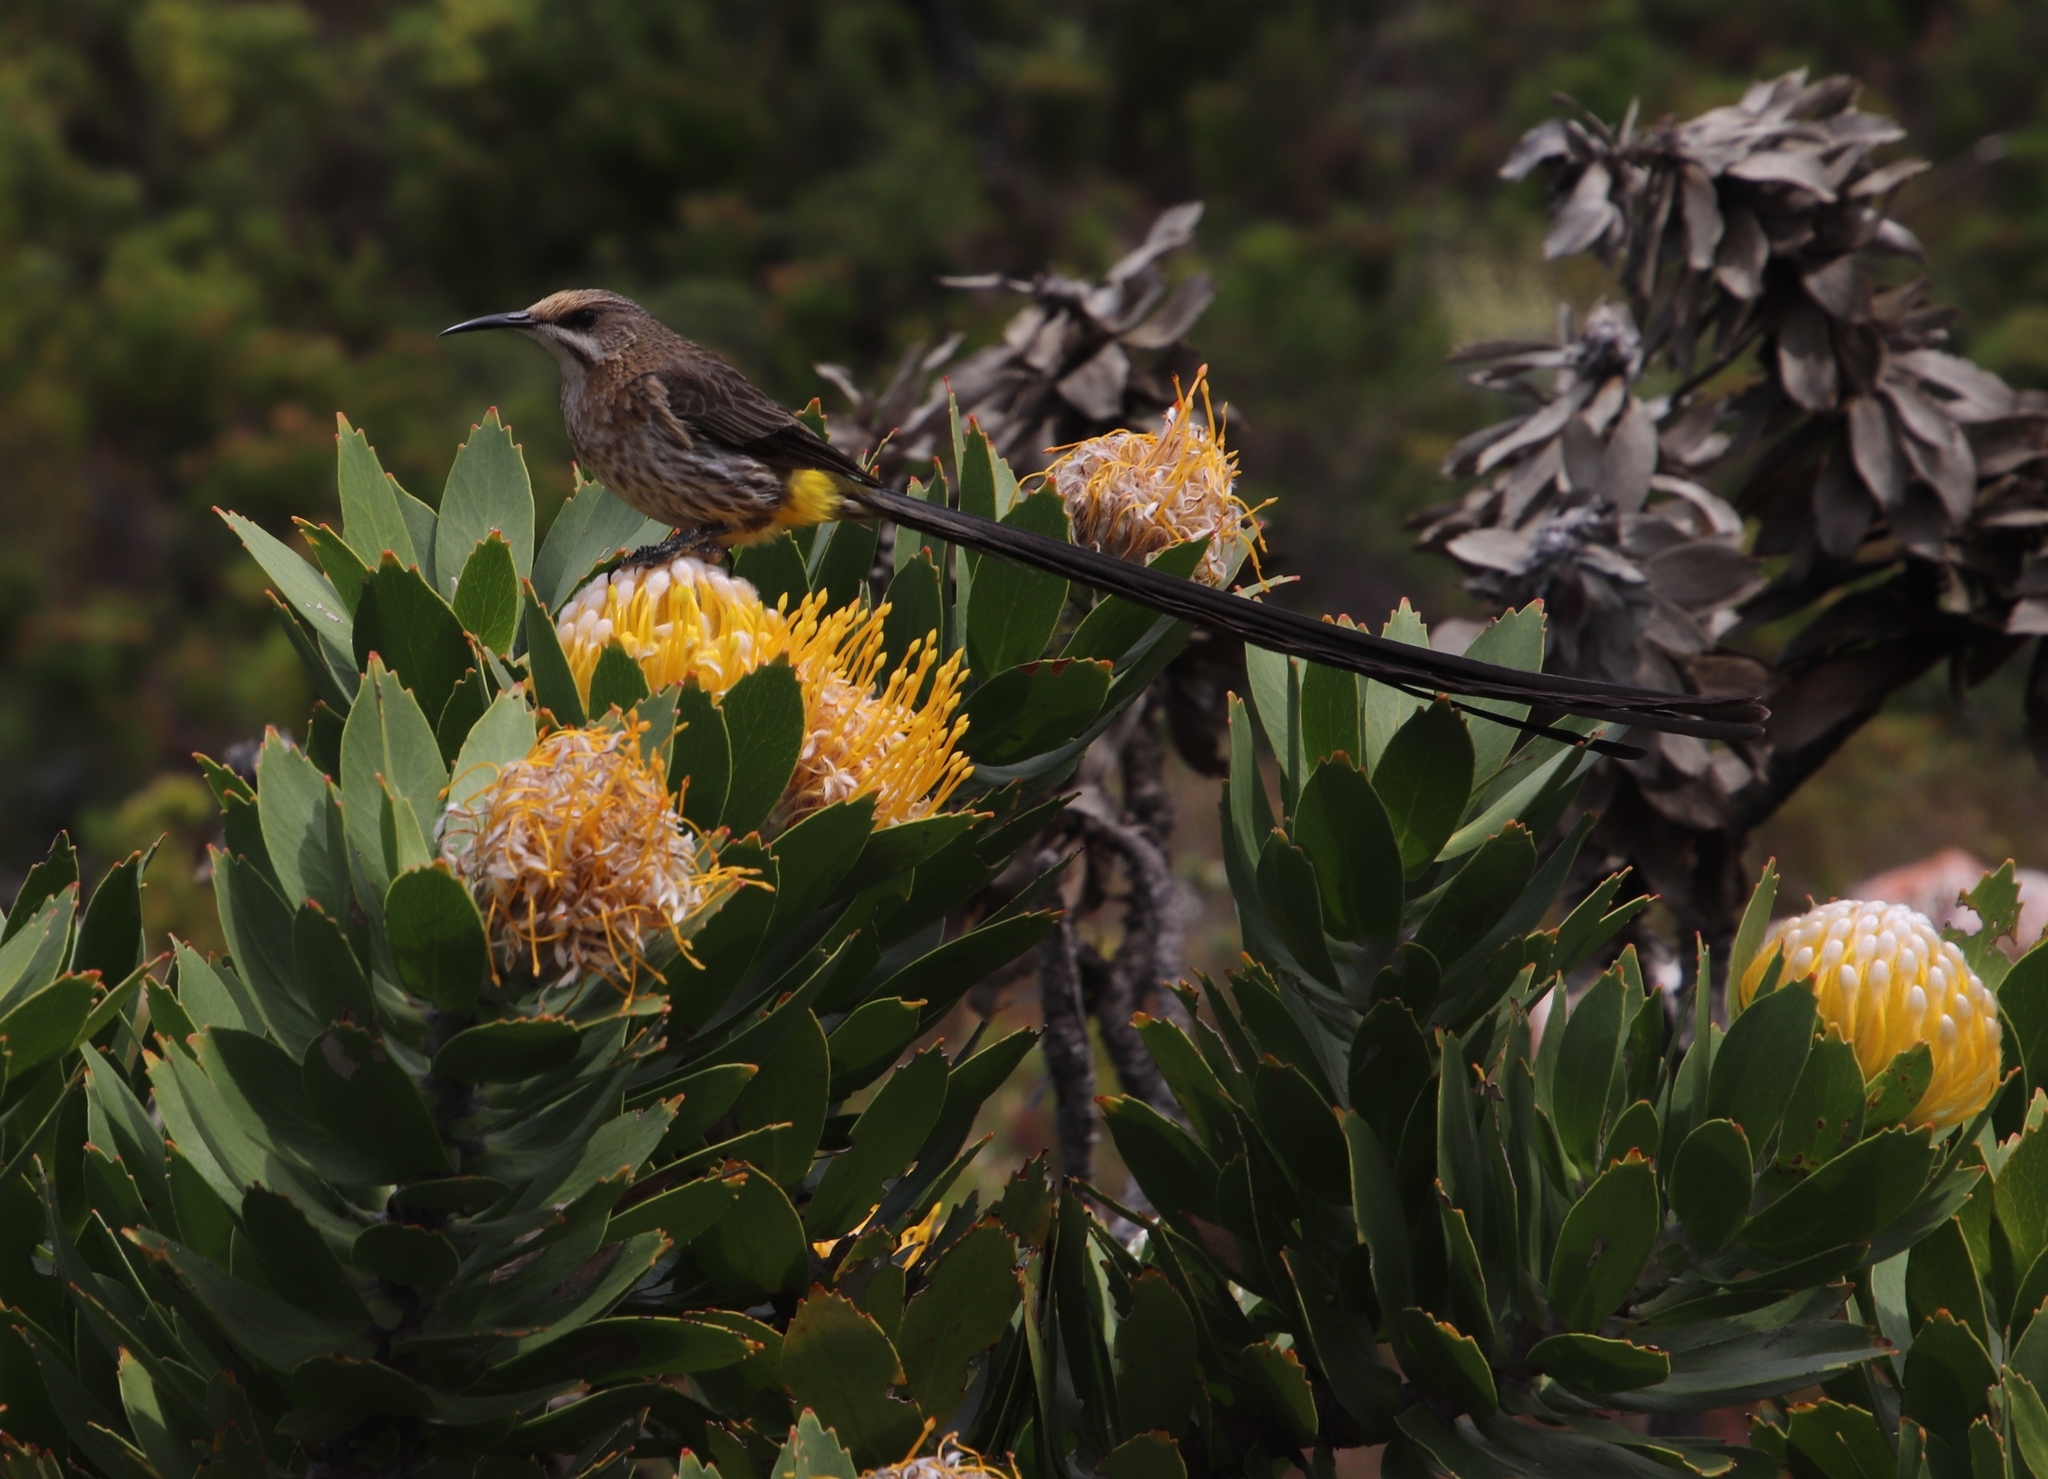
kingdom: Animalia
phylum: Chordata
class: Aves
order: Passeriformes
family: Promeropidae
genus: Promerops
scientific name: Promerops cafer
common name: Cape sugarbird
